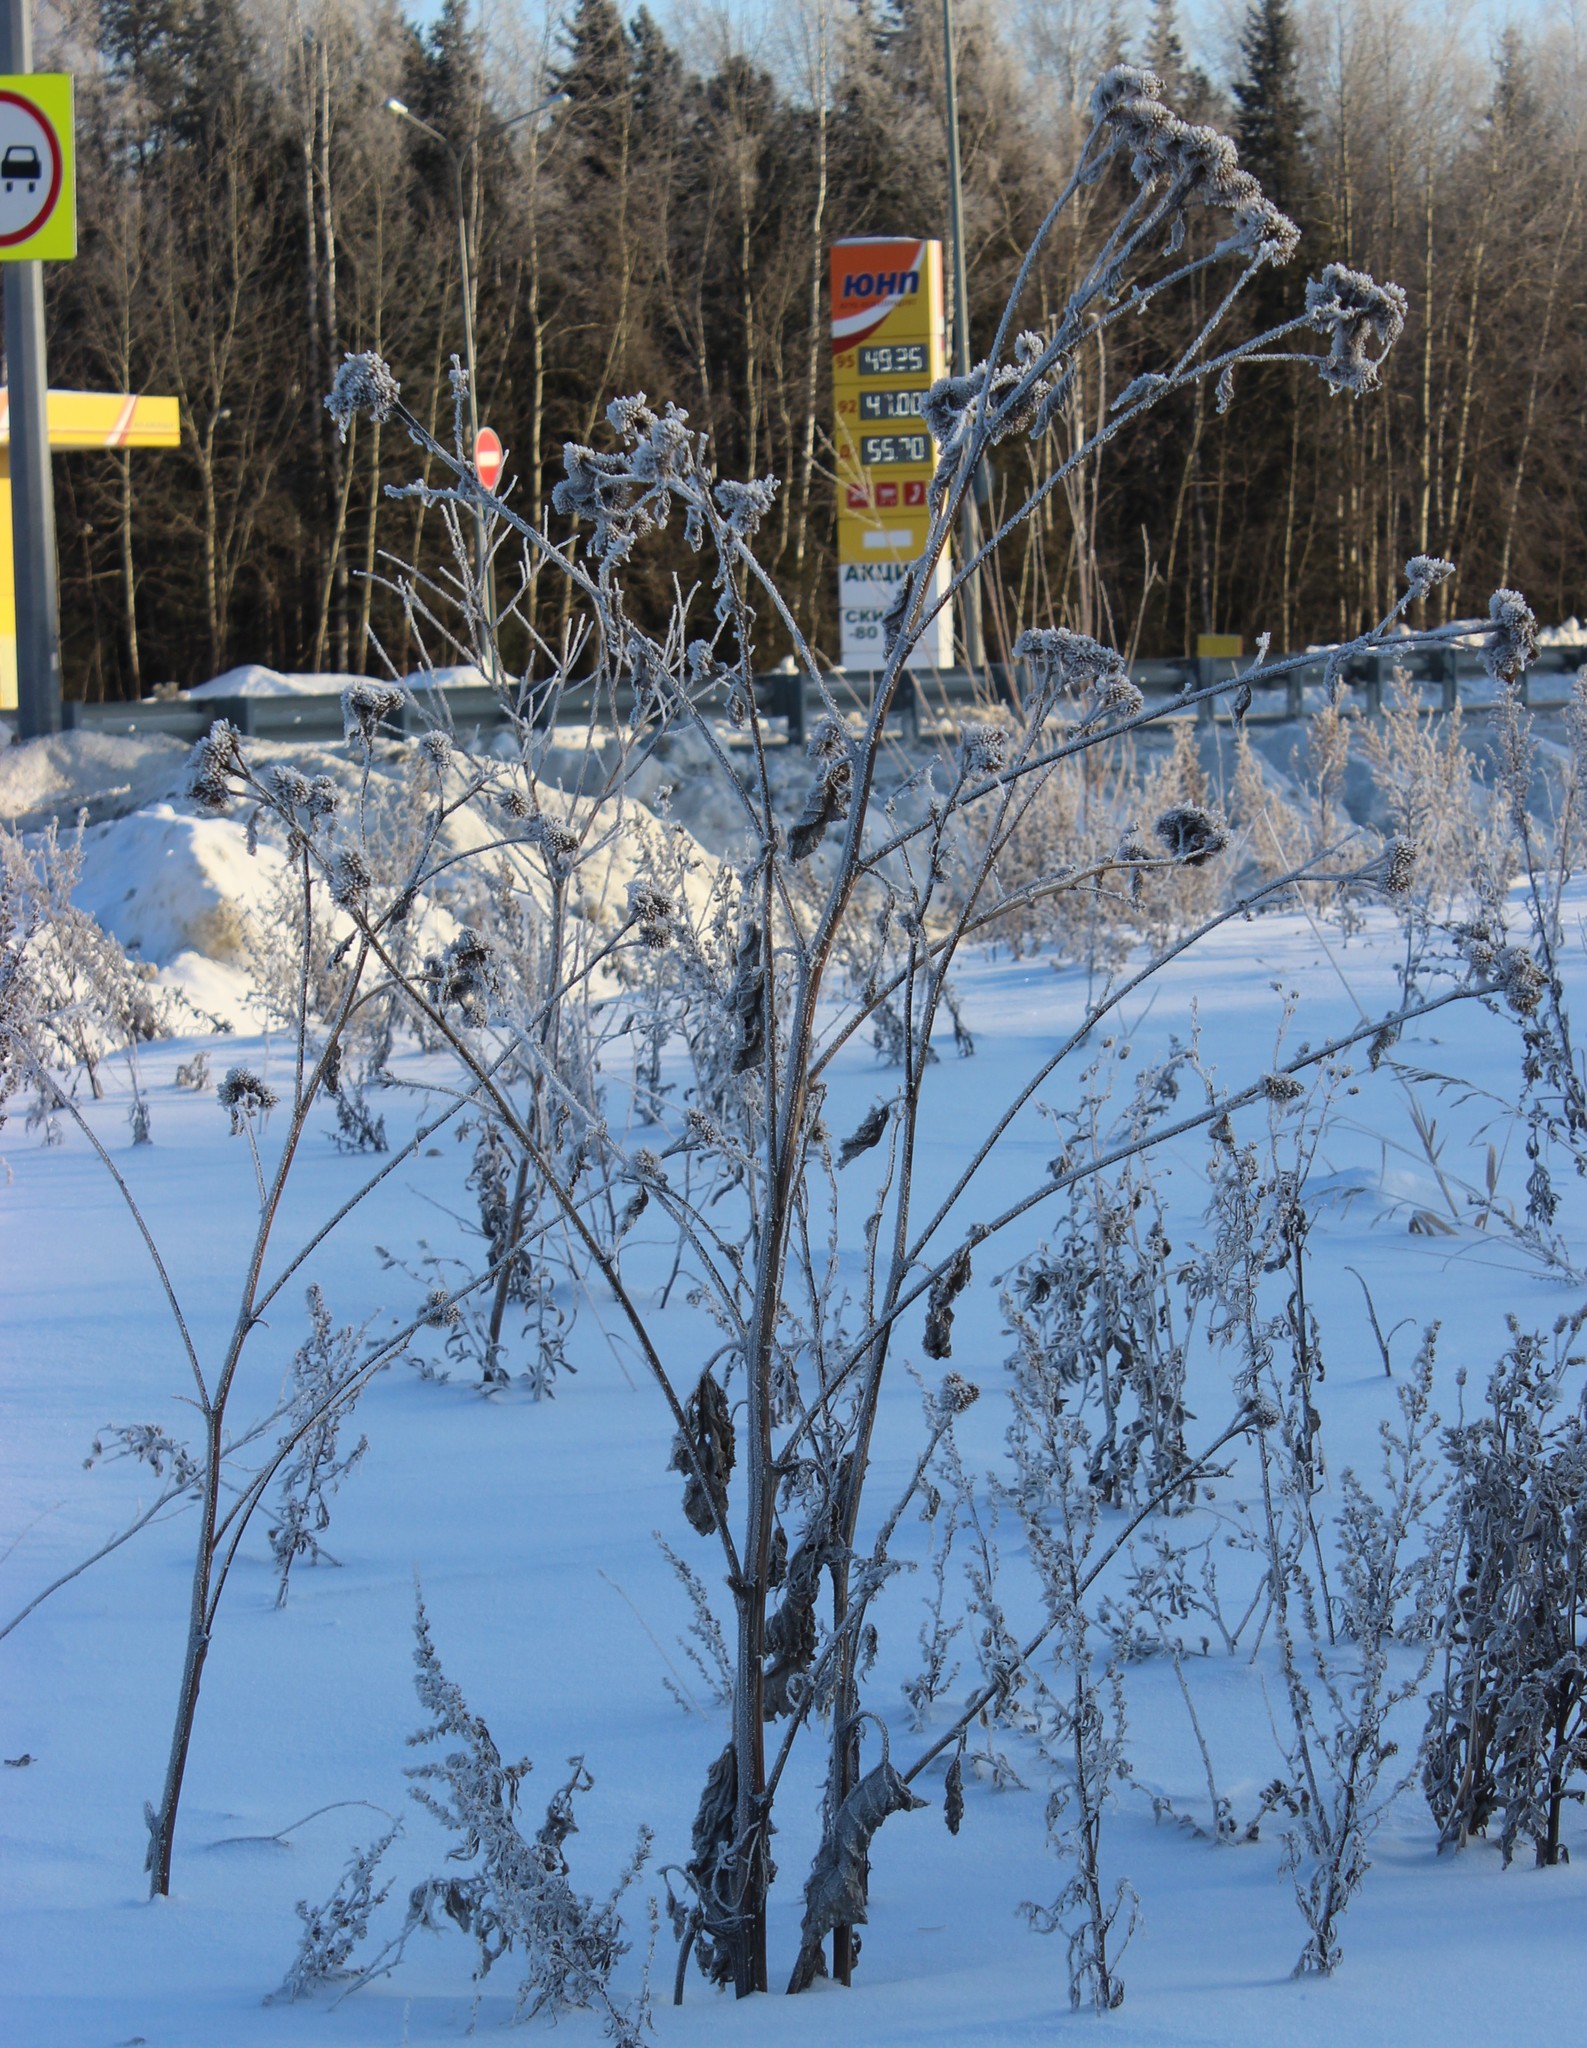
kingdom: Plantae
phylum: Tracheophyta
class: Magnoliopsida
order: Asterales
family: Asteraceae
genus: Arctium
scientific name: Arctium tomentosum
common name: Woolly burdock
